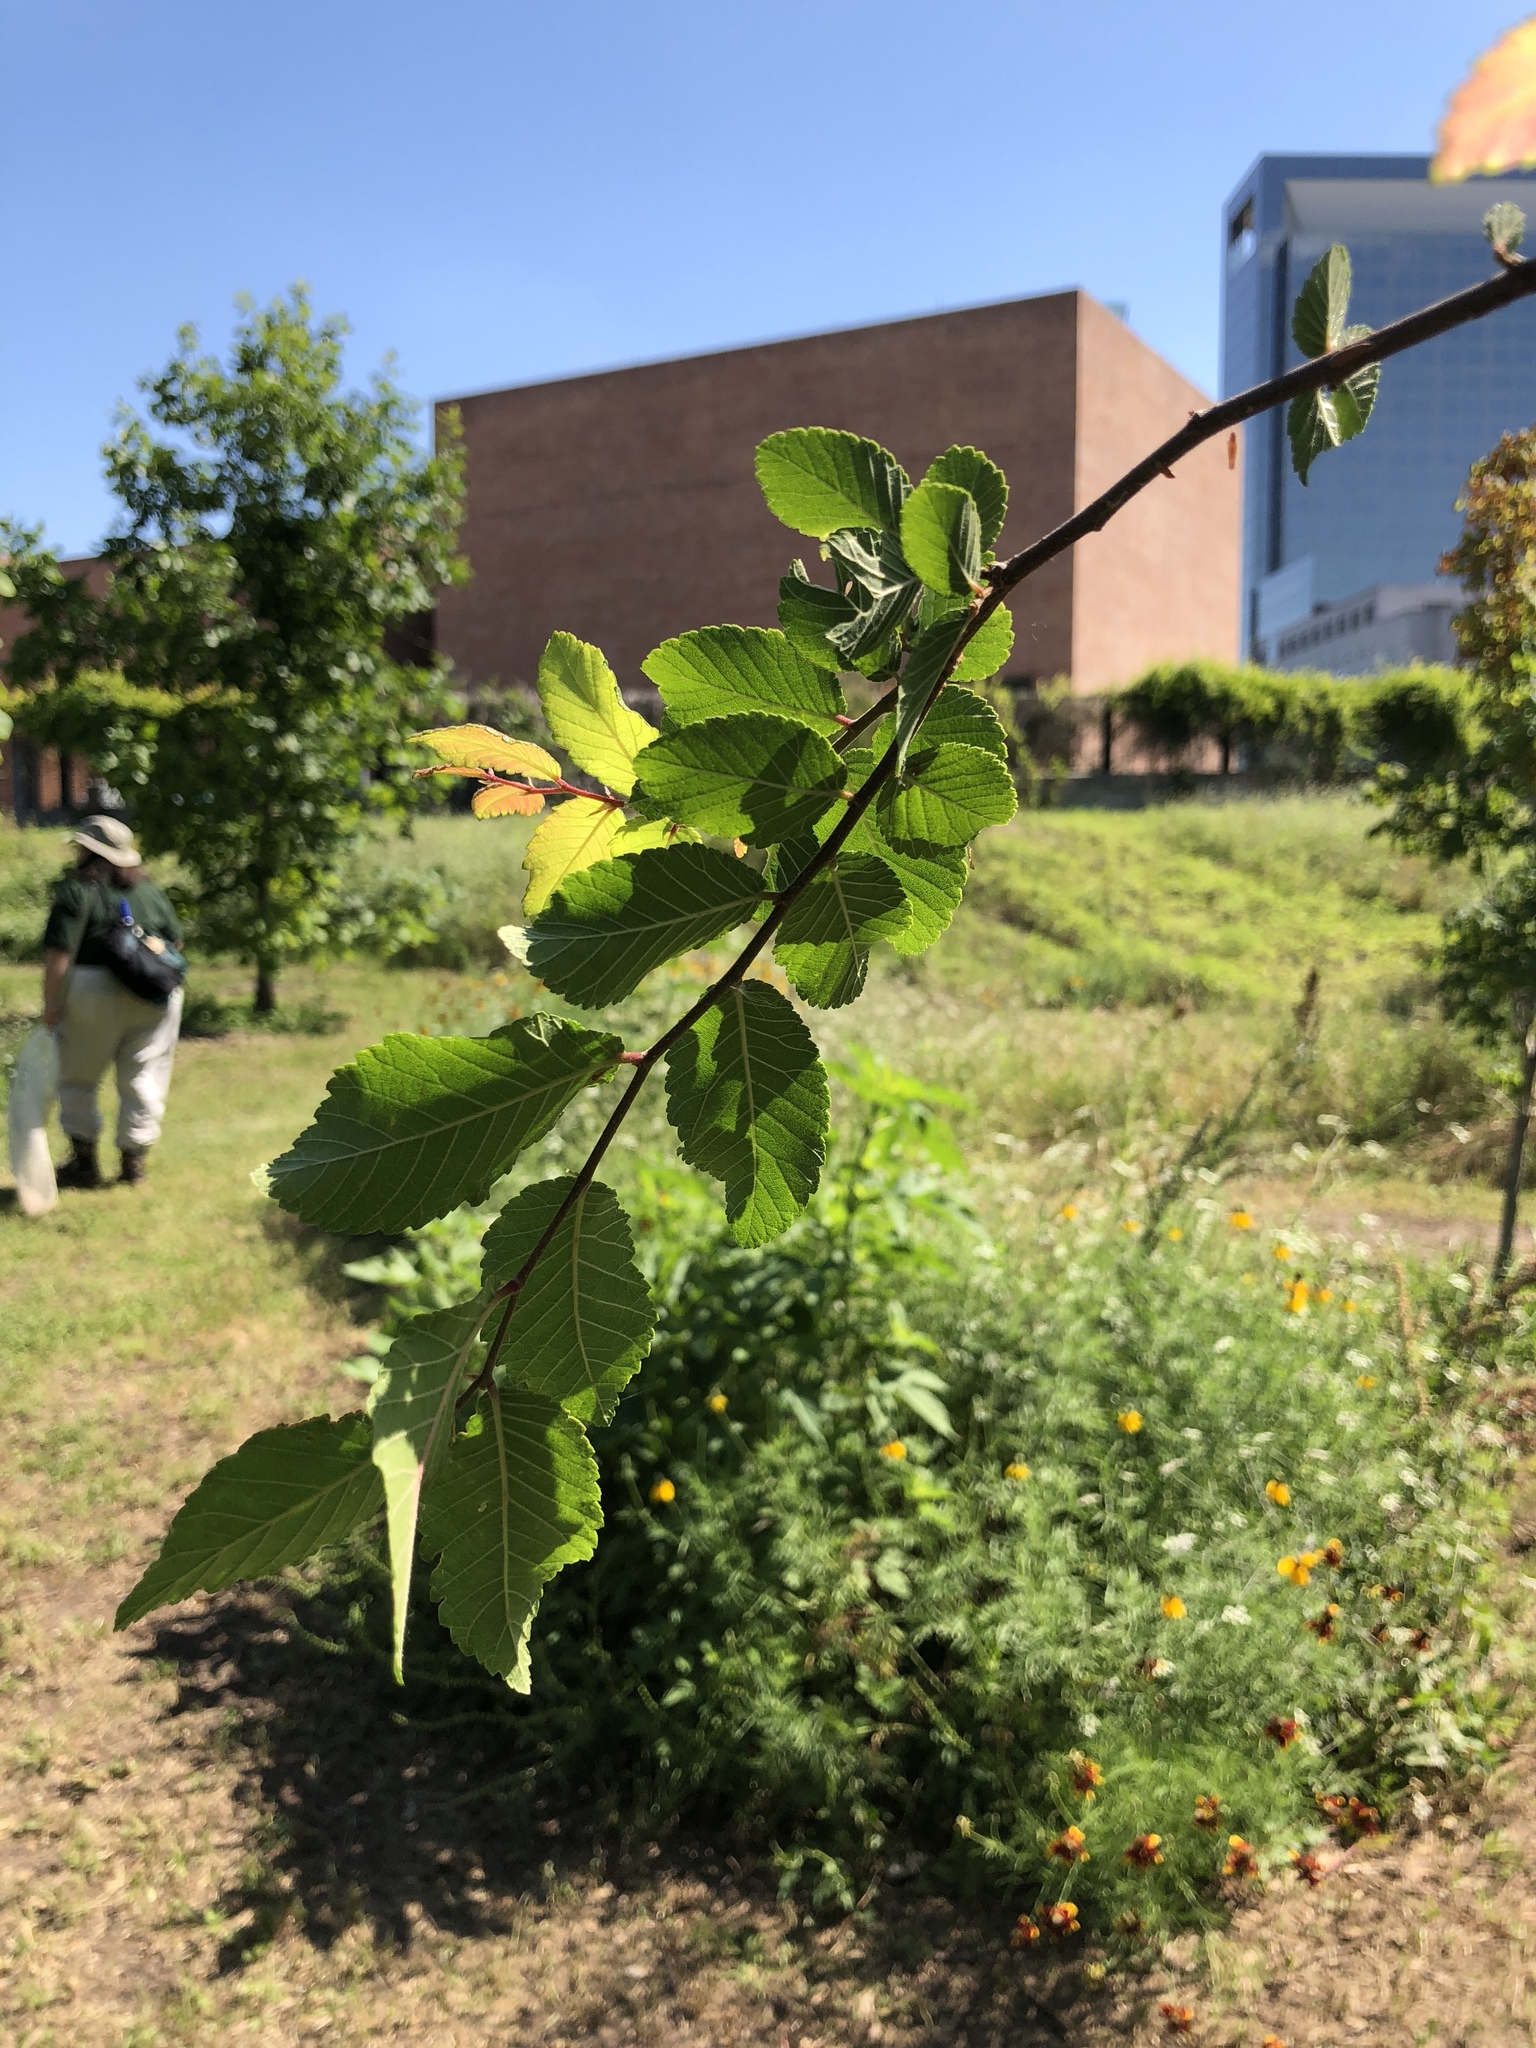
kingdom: Plantae
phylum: Tracheophyta
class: Magnoliopsida
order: Rosales
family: Ulmaceae
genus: Ulmus
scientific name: Ulmus crassifolia
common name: Basket elm
